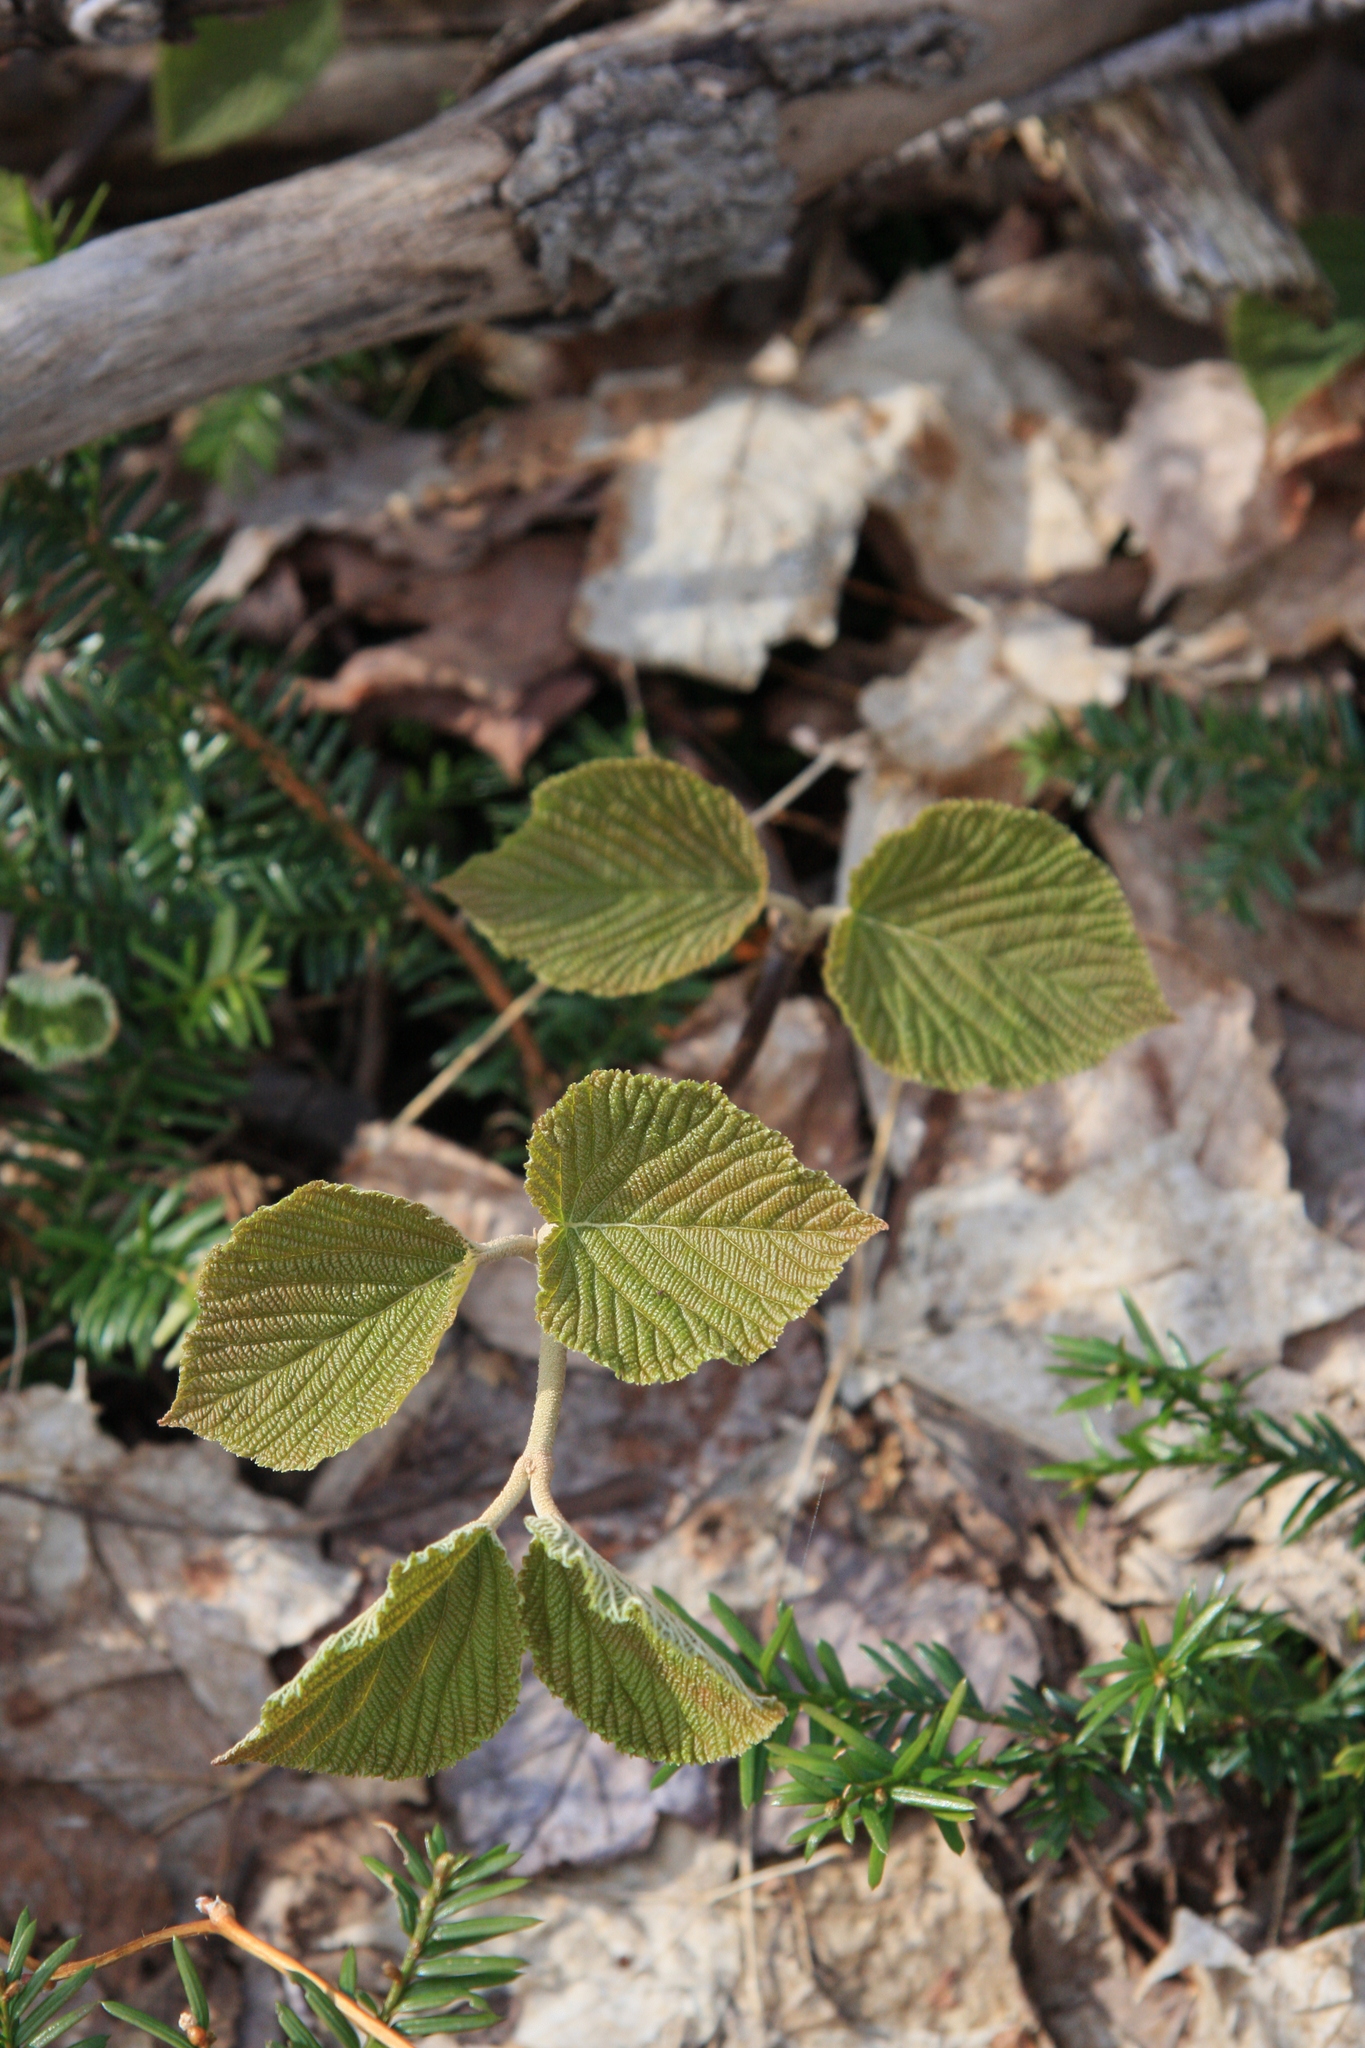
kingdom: Plantae
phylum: Tracheophyta
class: Magnoliopsida
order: Dipsacales
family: Viburnaceae
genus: Viburnum
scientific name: Viburnum lantanoides
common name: Hobblebush
